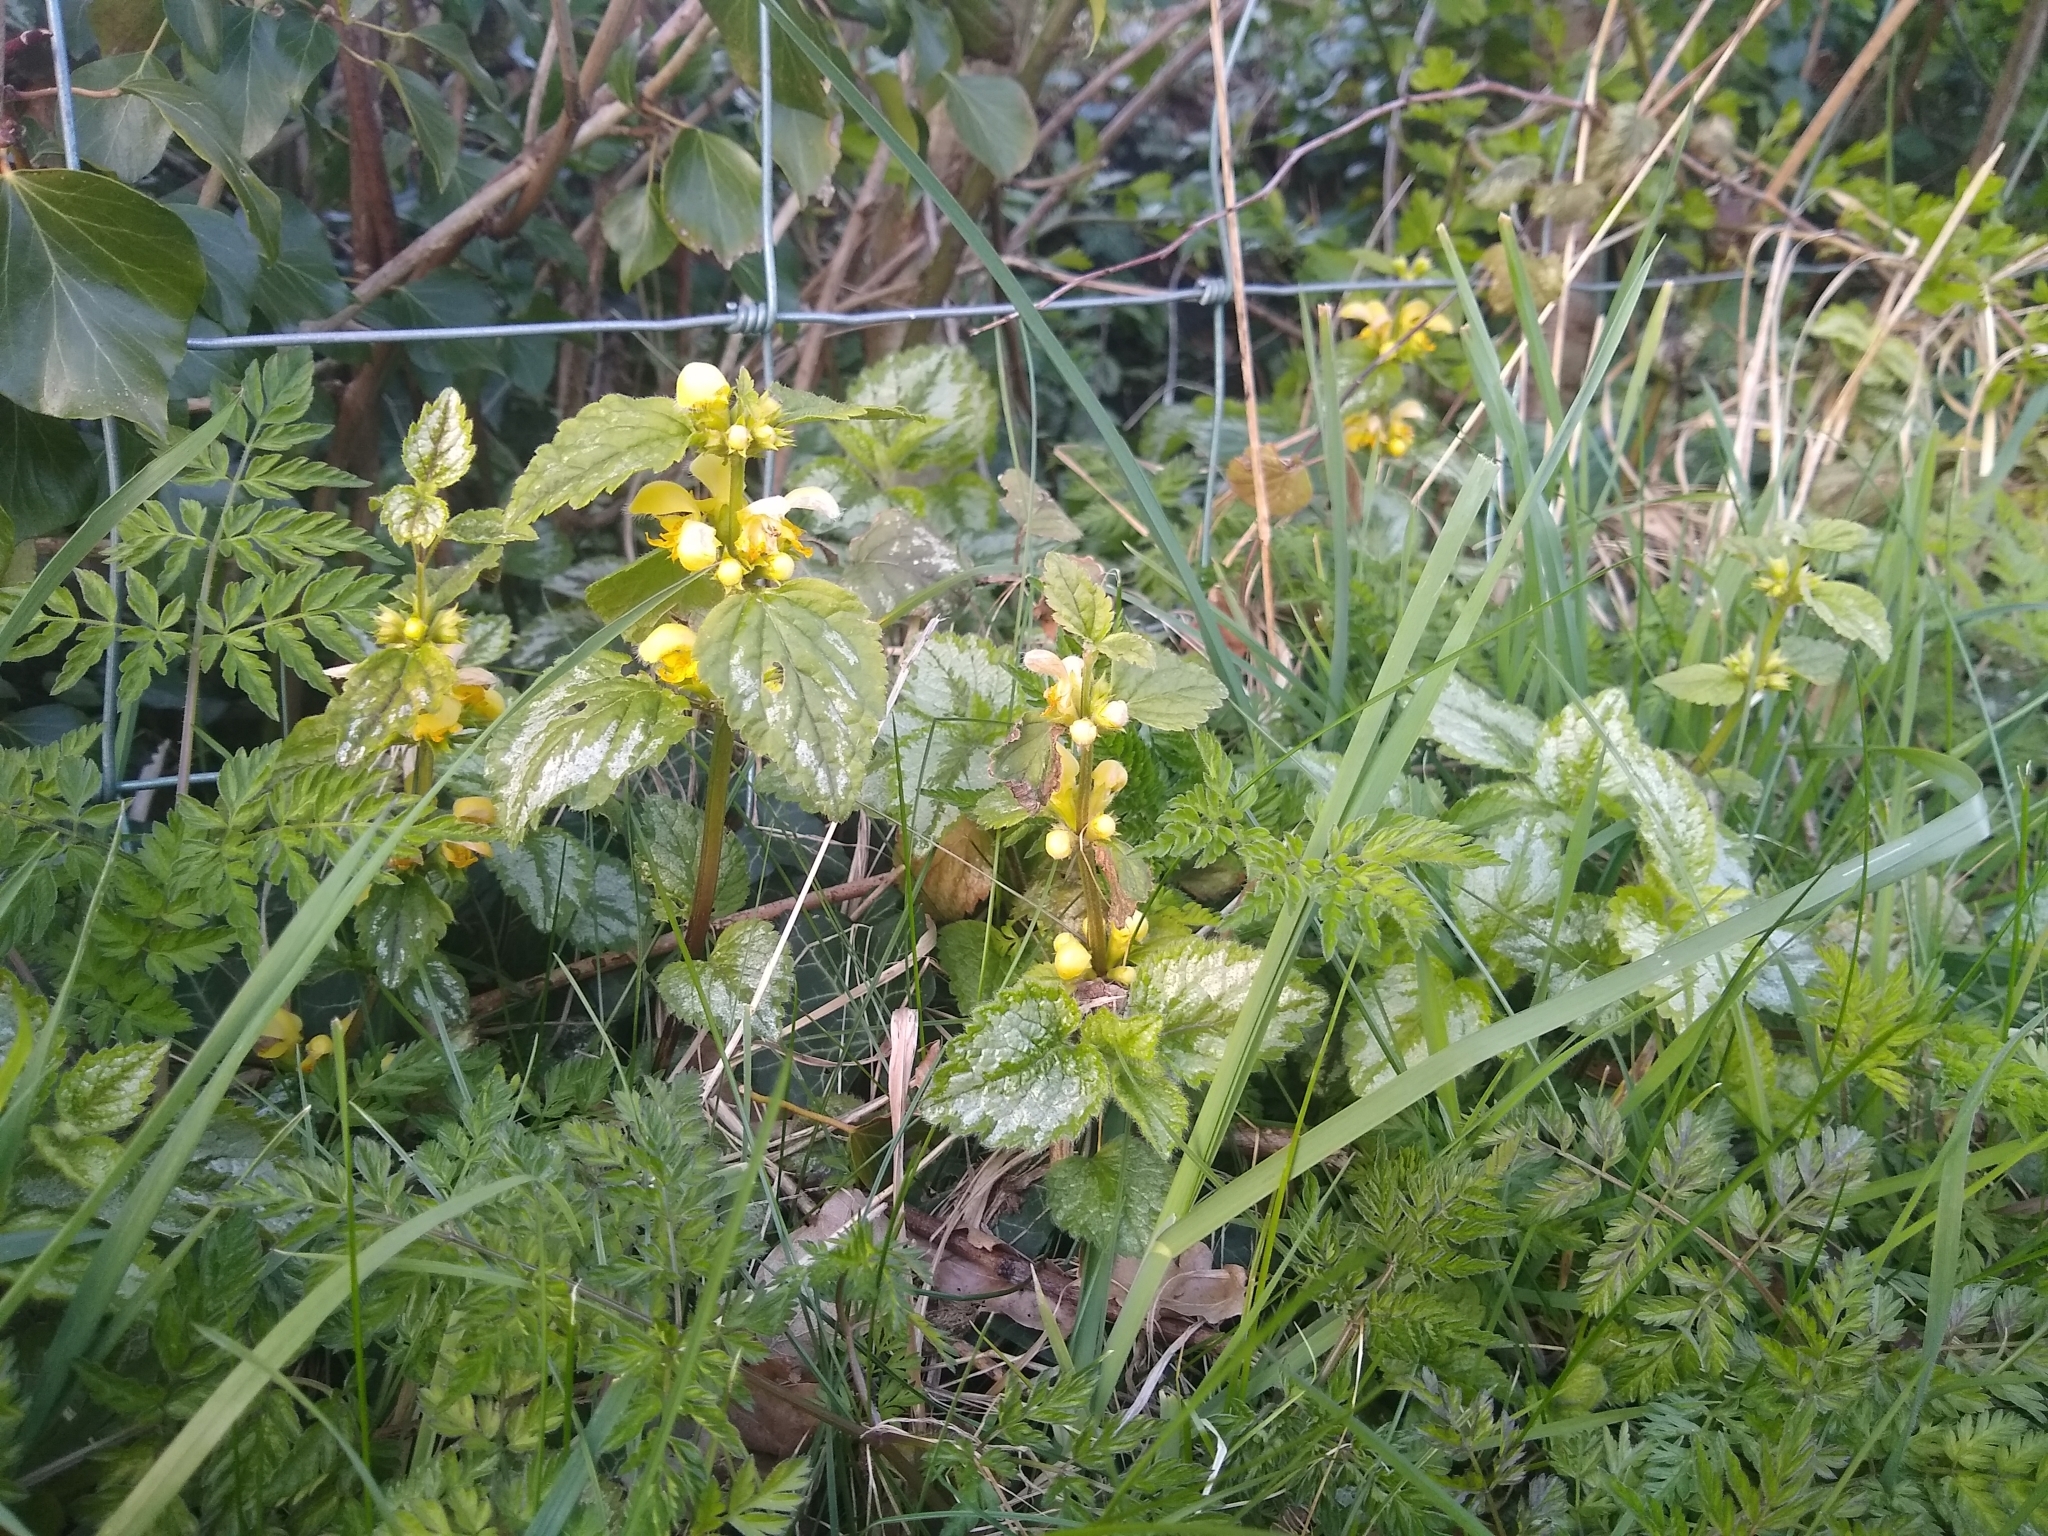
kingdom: Plantae
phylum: Tracheophyta
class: Magnoliopsida
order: Lamiales
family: Lamiaceae
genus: Lamium
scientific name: Lamium galeobdolon
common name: Yellow archangel
